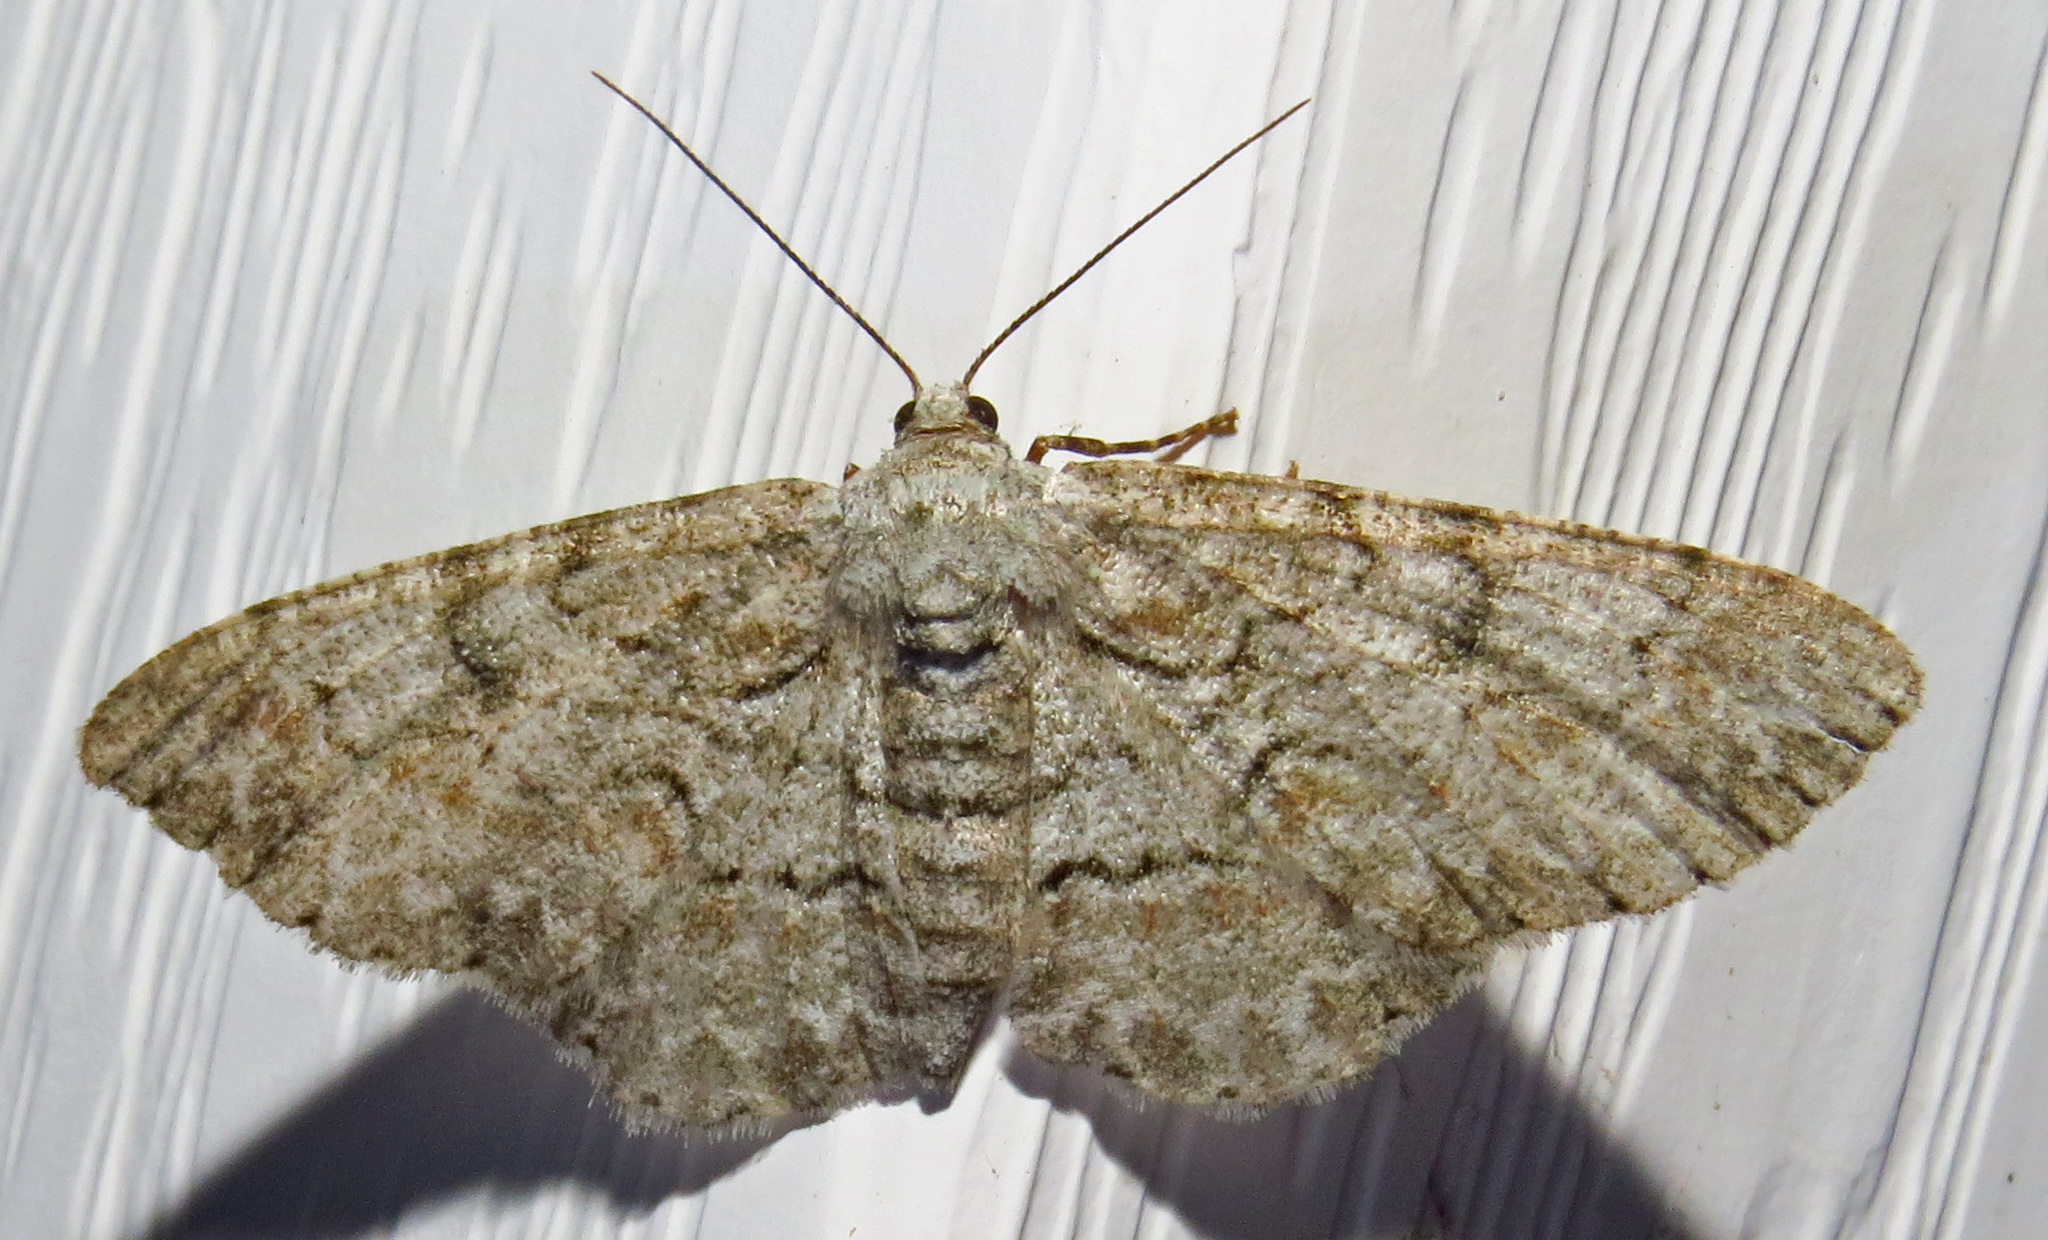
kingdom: Animalia
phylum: Arthropoda
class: Insecta
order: Lepidoptera
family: Geometridae
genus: Iridopsis
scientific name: Iridopsis defectaria
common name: Brown-shaded gray
